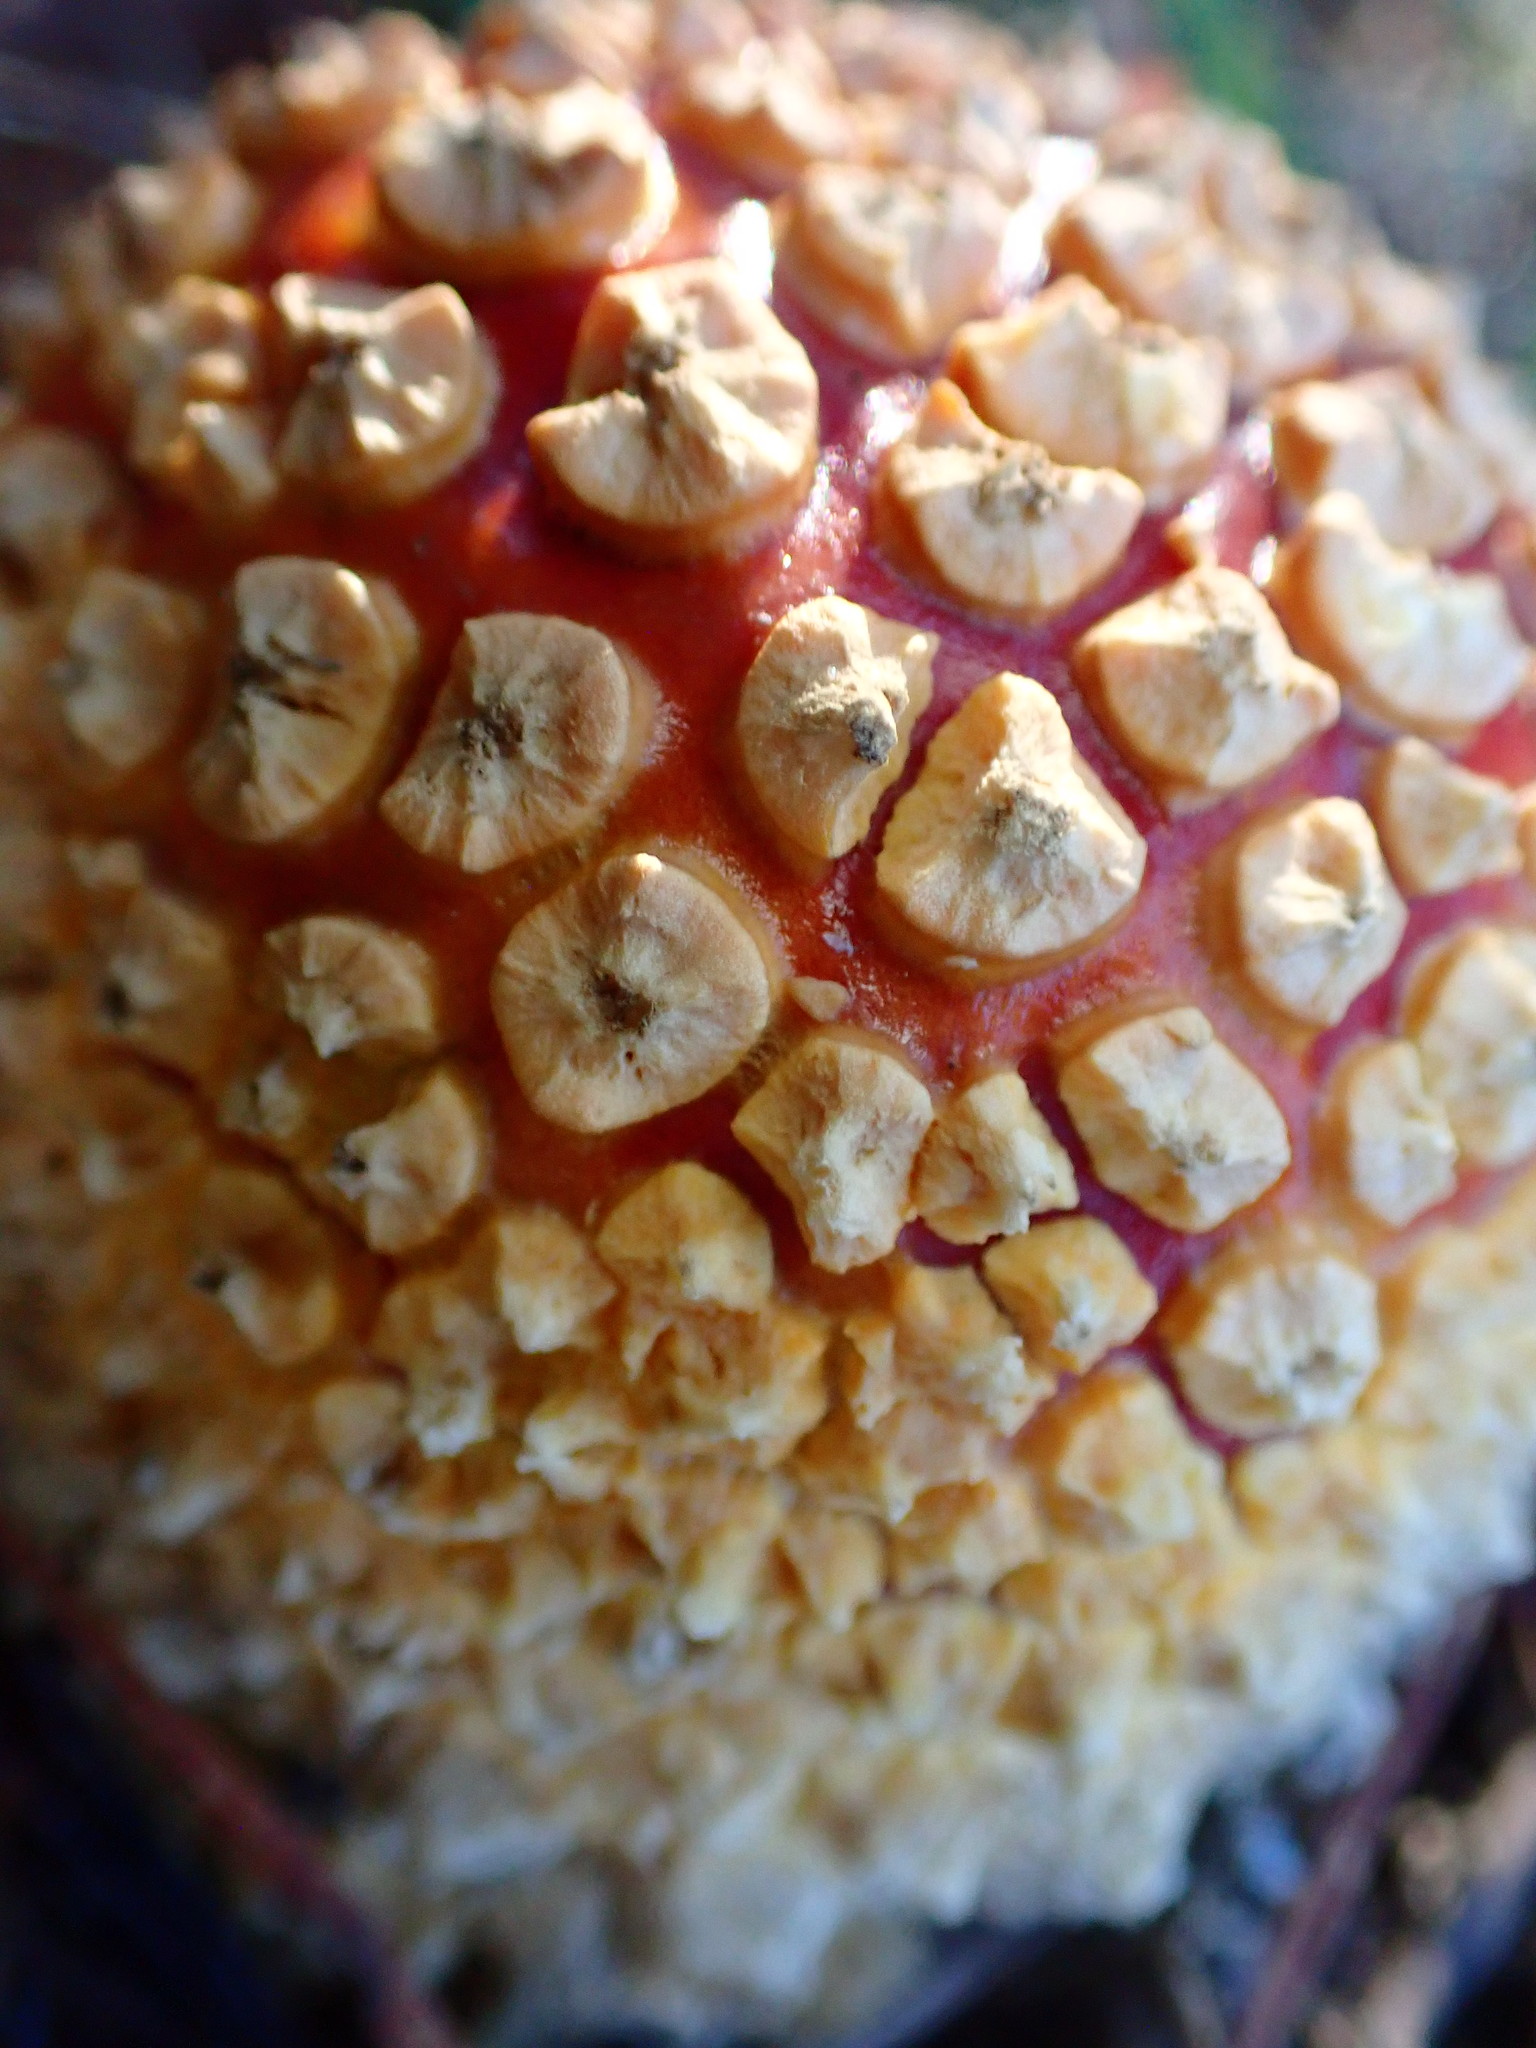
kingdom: Fungi
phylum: Basidiomycota
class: Agaricomycetes
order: Agaricales
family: Amanitaceae
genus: Amanita
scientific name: Amanita muscaria
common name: Fly agaric
